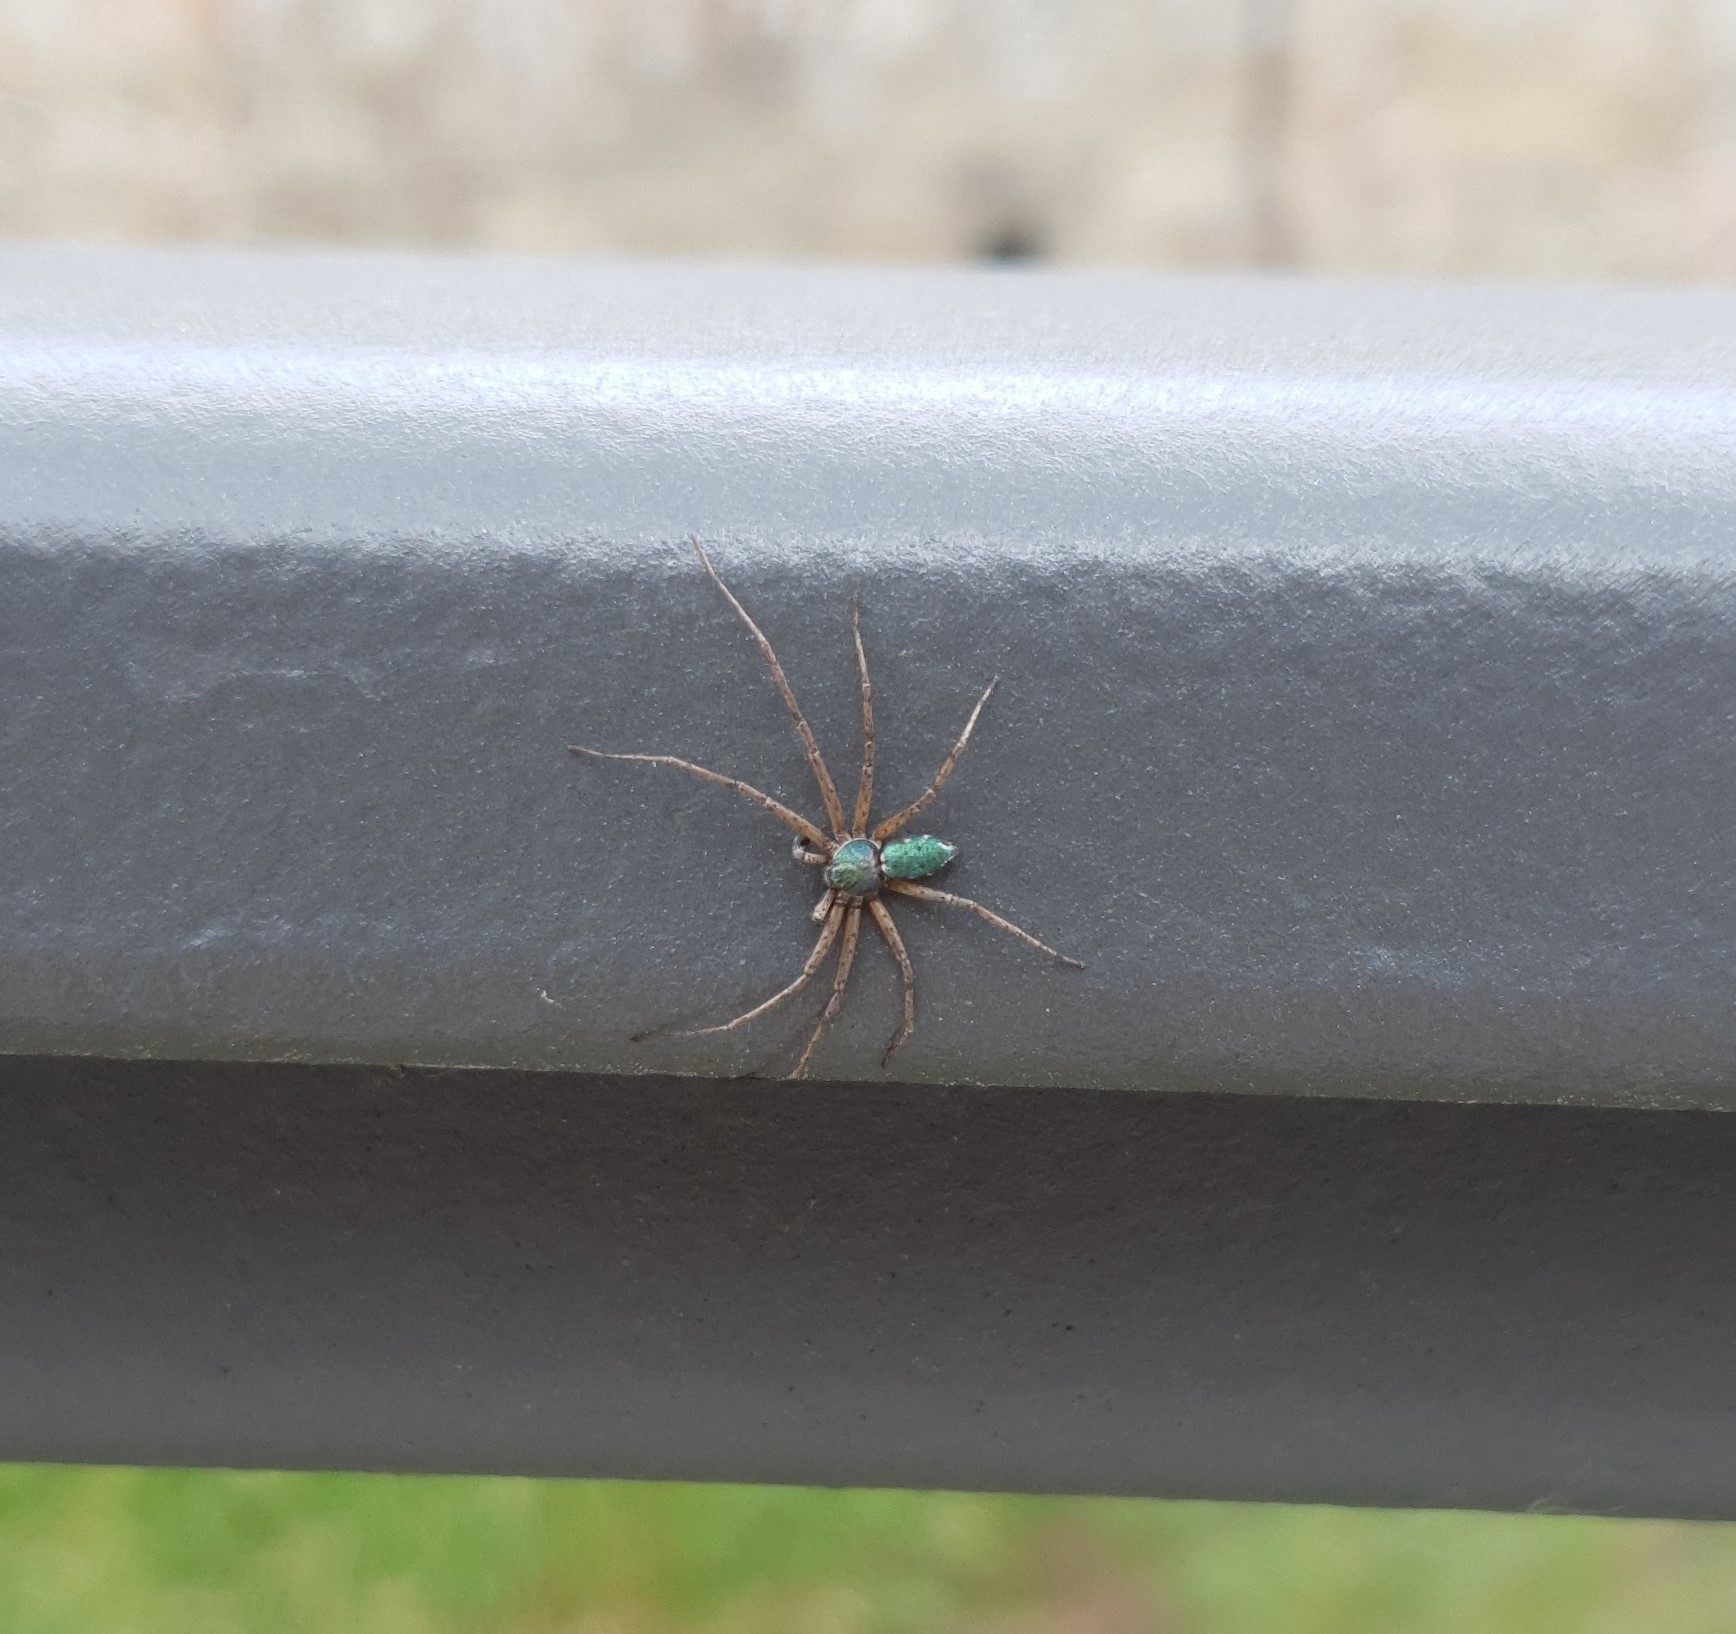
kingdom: Animalia
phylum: Arthropoda
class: Arachnida
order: Araneae
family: Philodromidae
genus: Philodromus
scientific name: Philodromus
